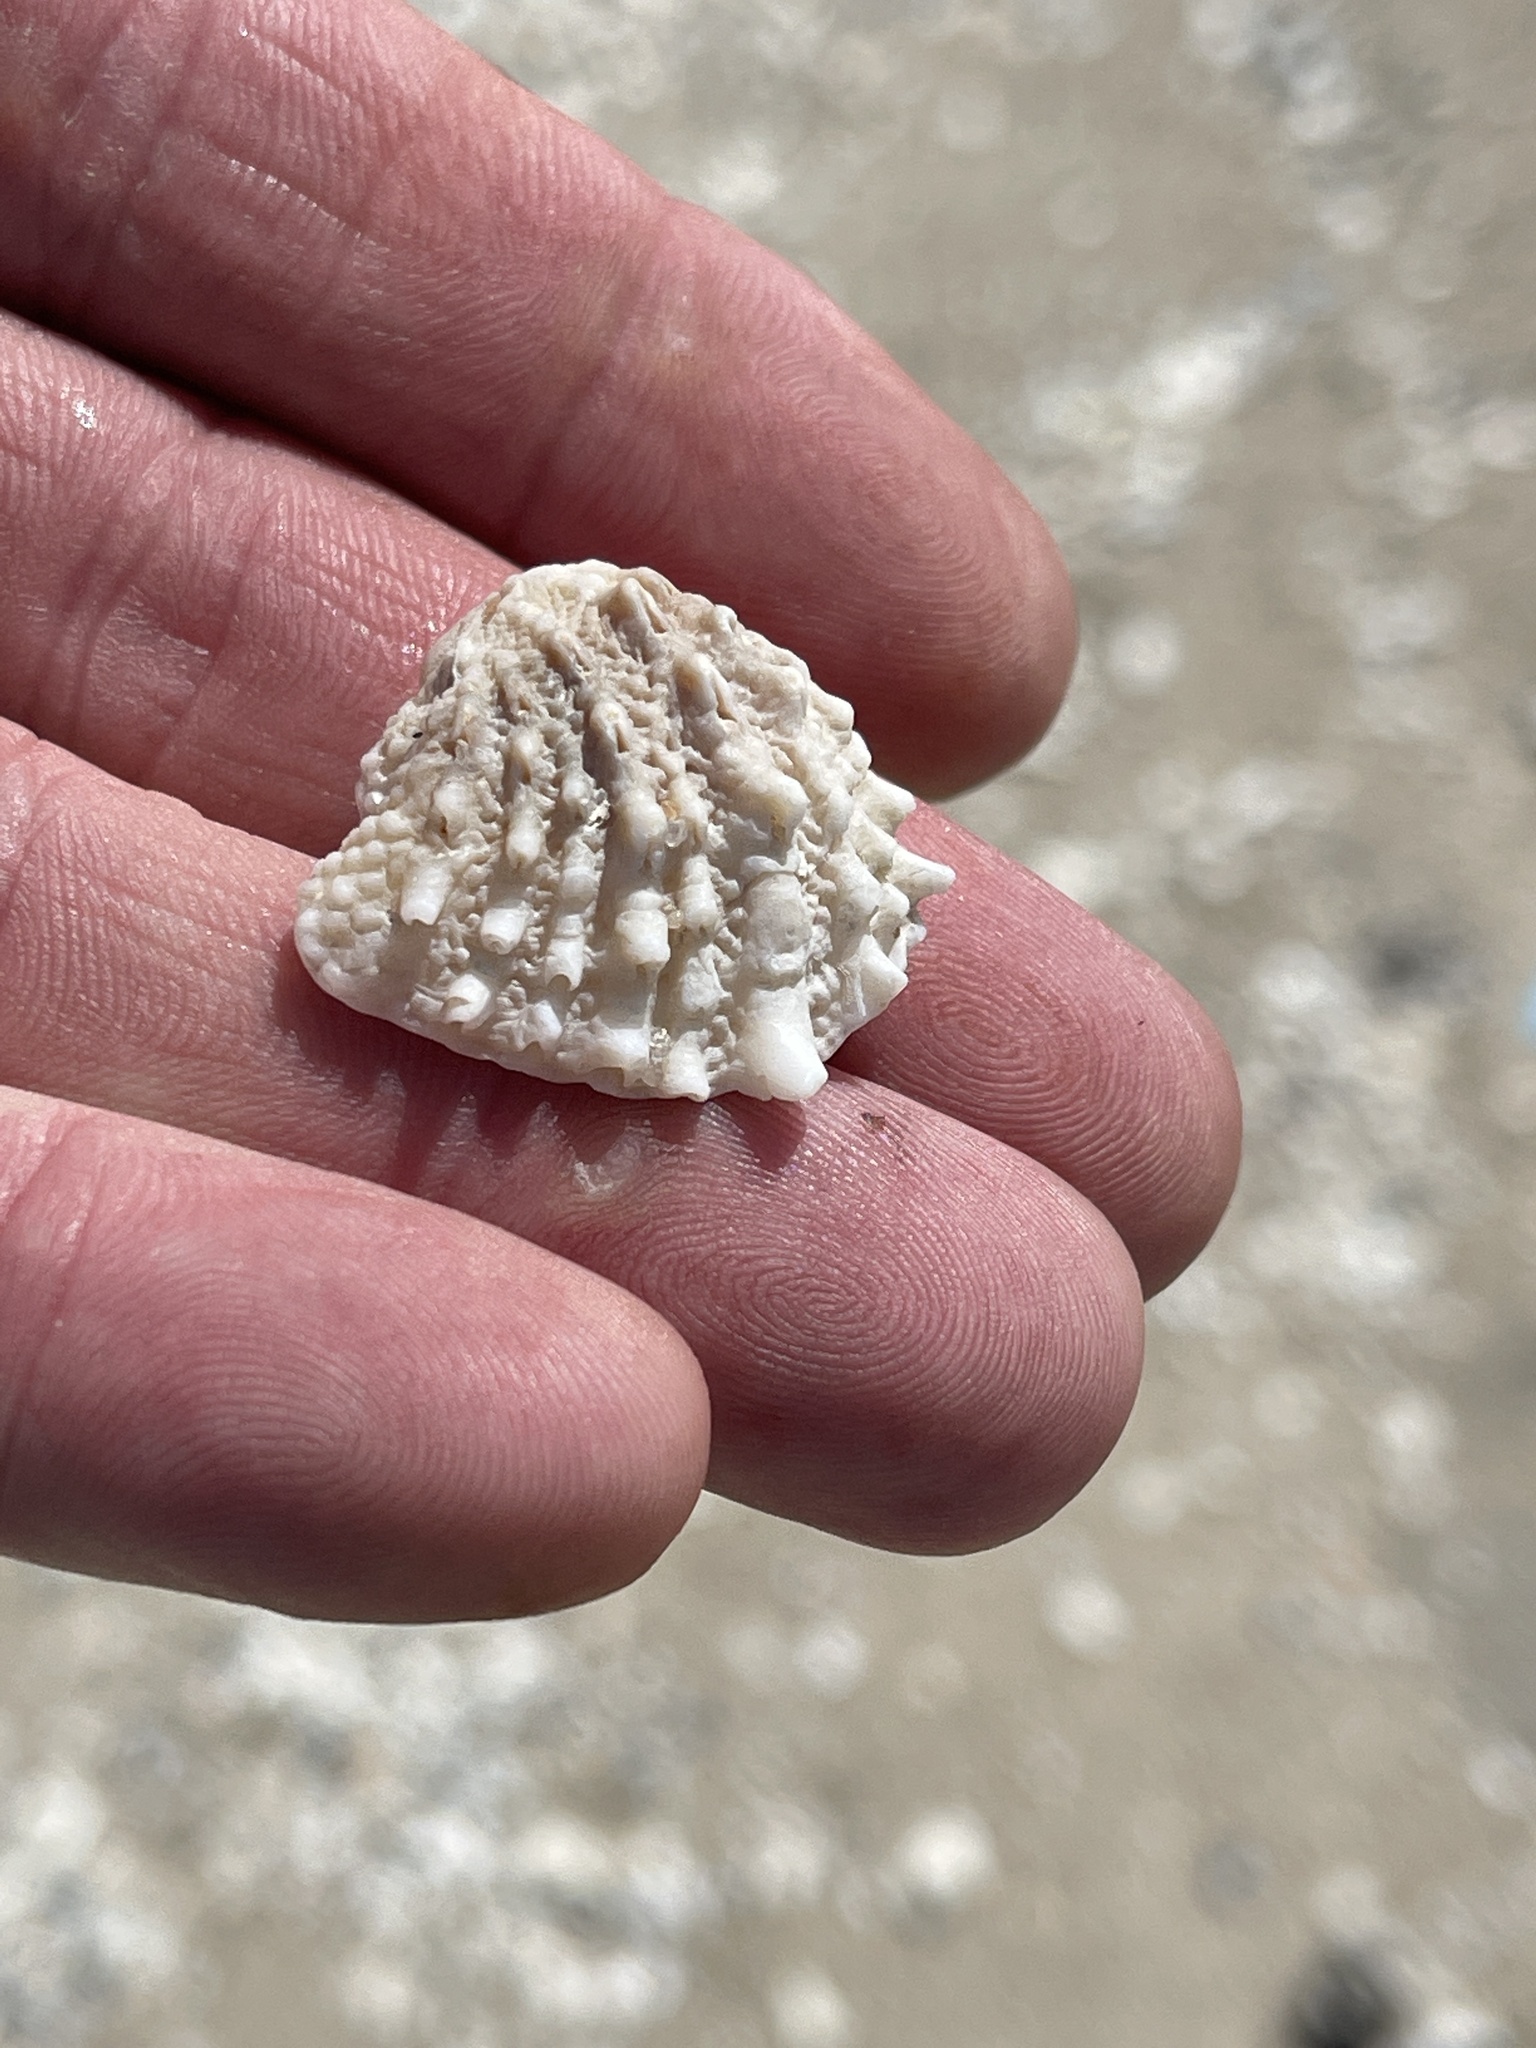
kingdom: Animalia
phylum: Mollusca
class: Bivalvia
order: Venerida
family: Chamidae
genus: Arcinella
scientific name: Arcinella cornuta
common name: Florida spiny jewel box
